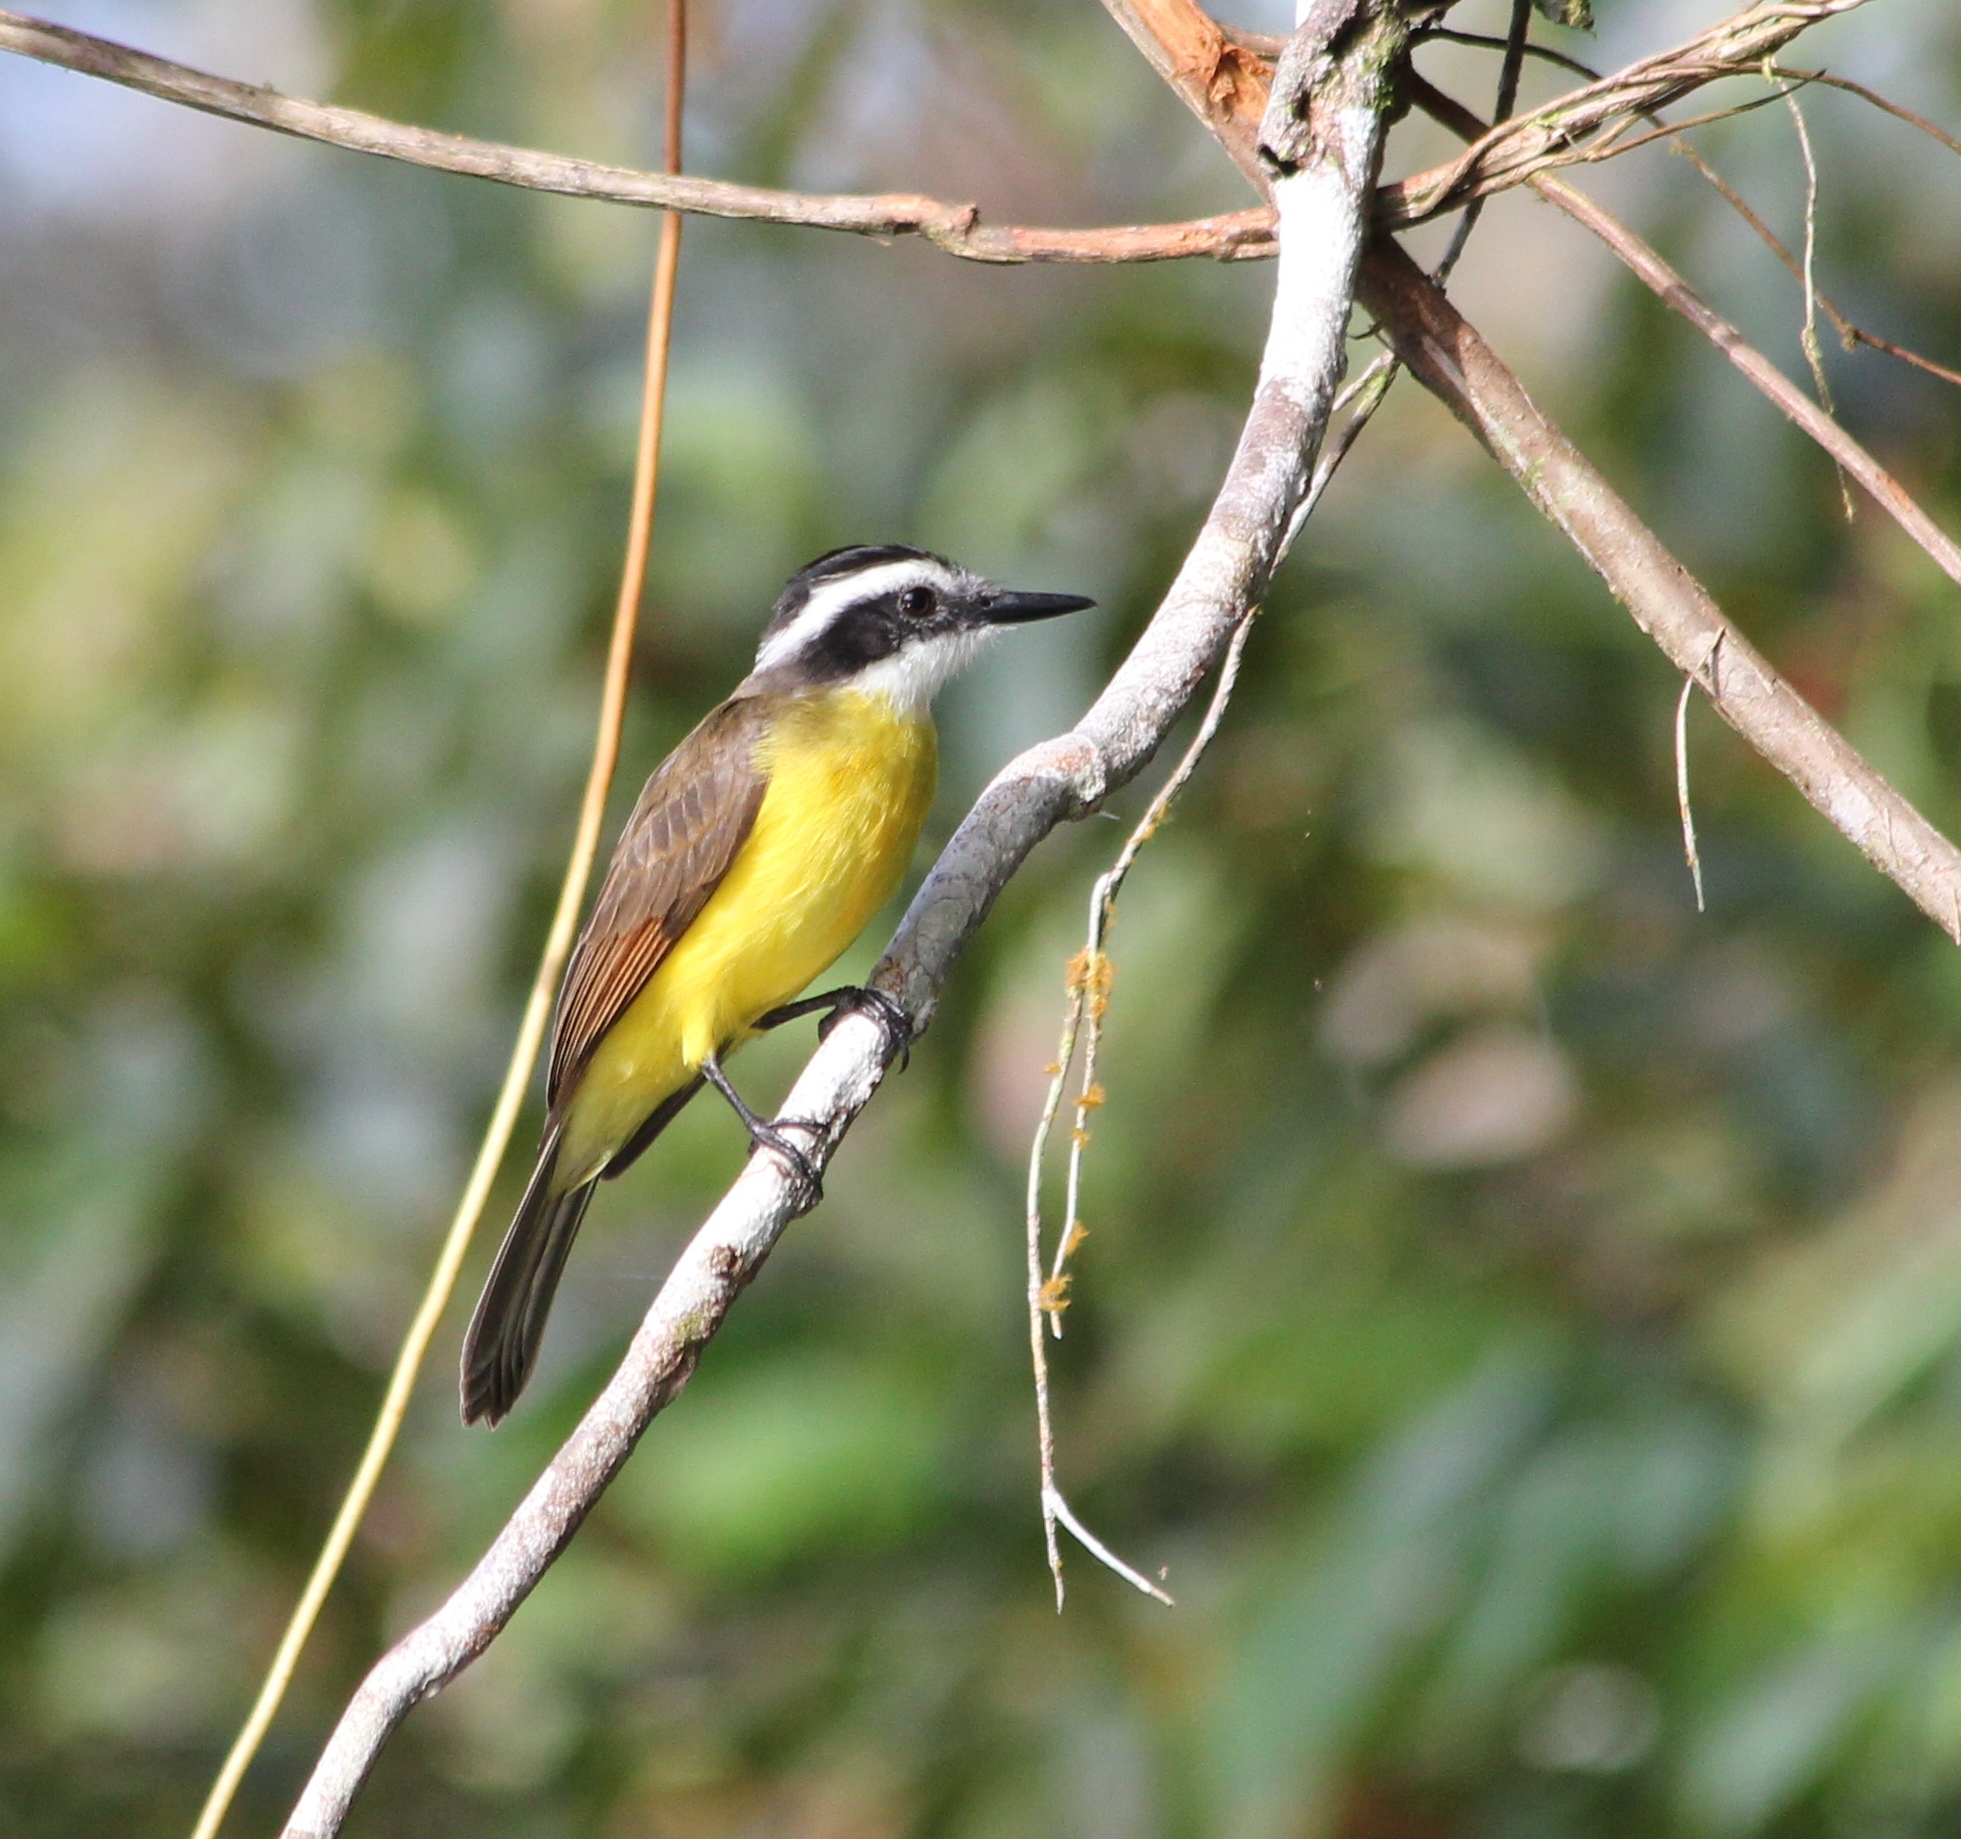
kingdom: Animalia
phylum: Chordata
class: Aves
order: Passeriformes
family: Tyrannidae
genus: Pitangus
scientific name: Pitangus lictor
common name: Lesser kiskadee
